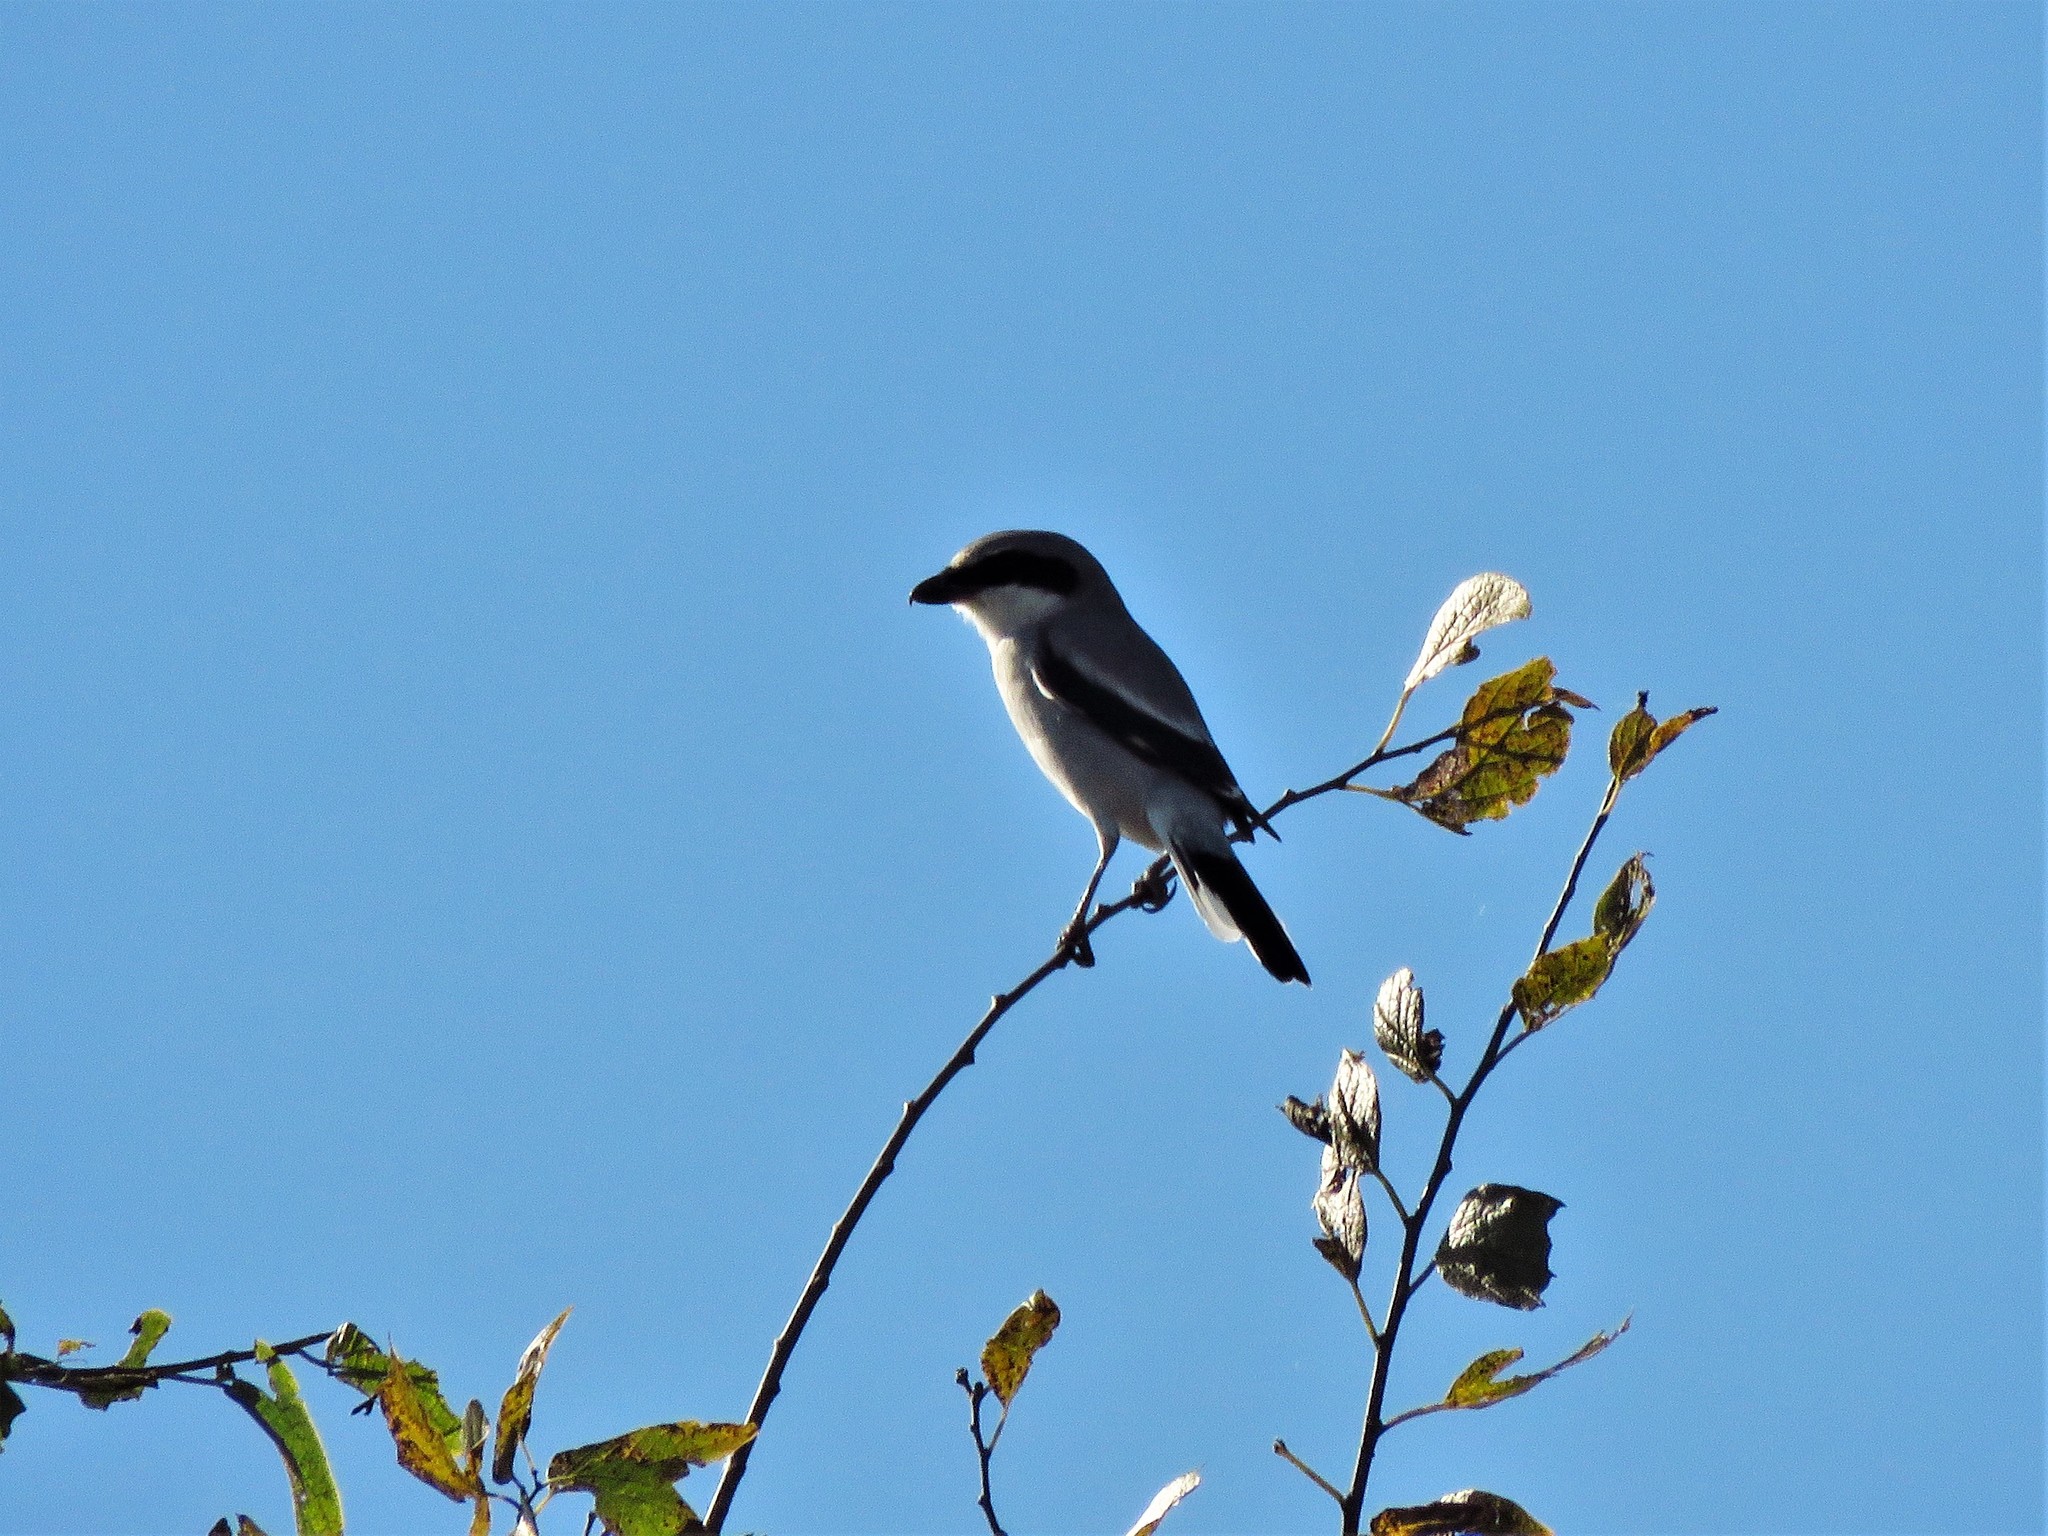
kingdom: Animalia
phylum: Chordata
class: Aves
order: Passeriformes
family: Laniidae
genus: Lanius
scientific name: Lanius ludovicianus
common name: Loggerhead shrike
